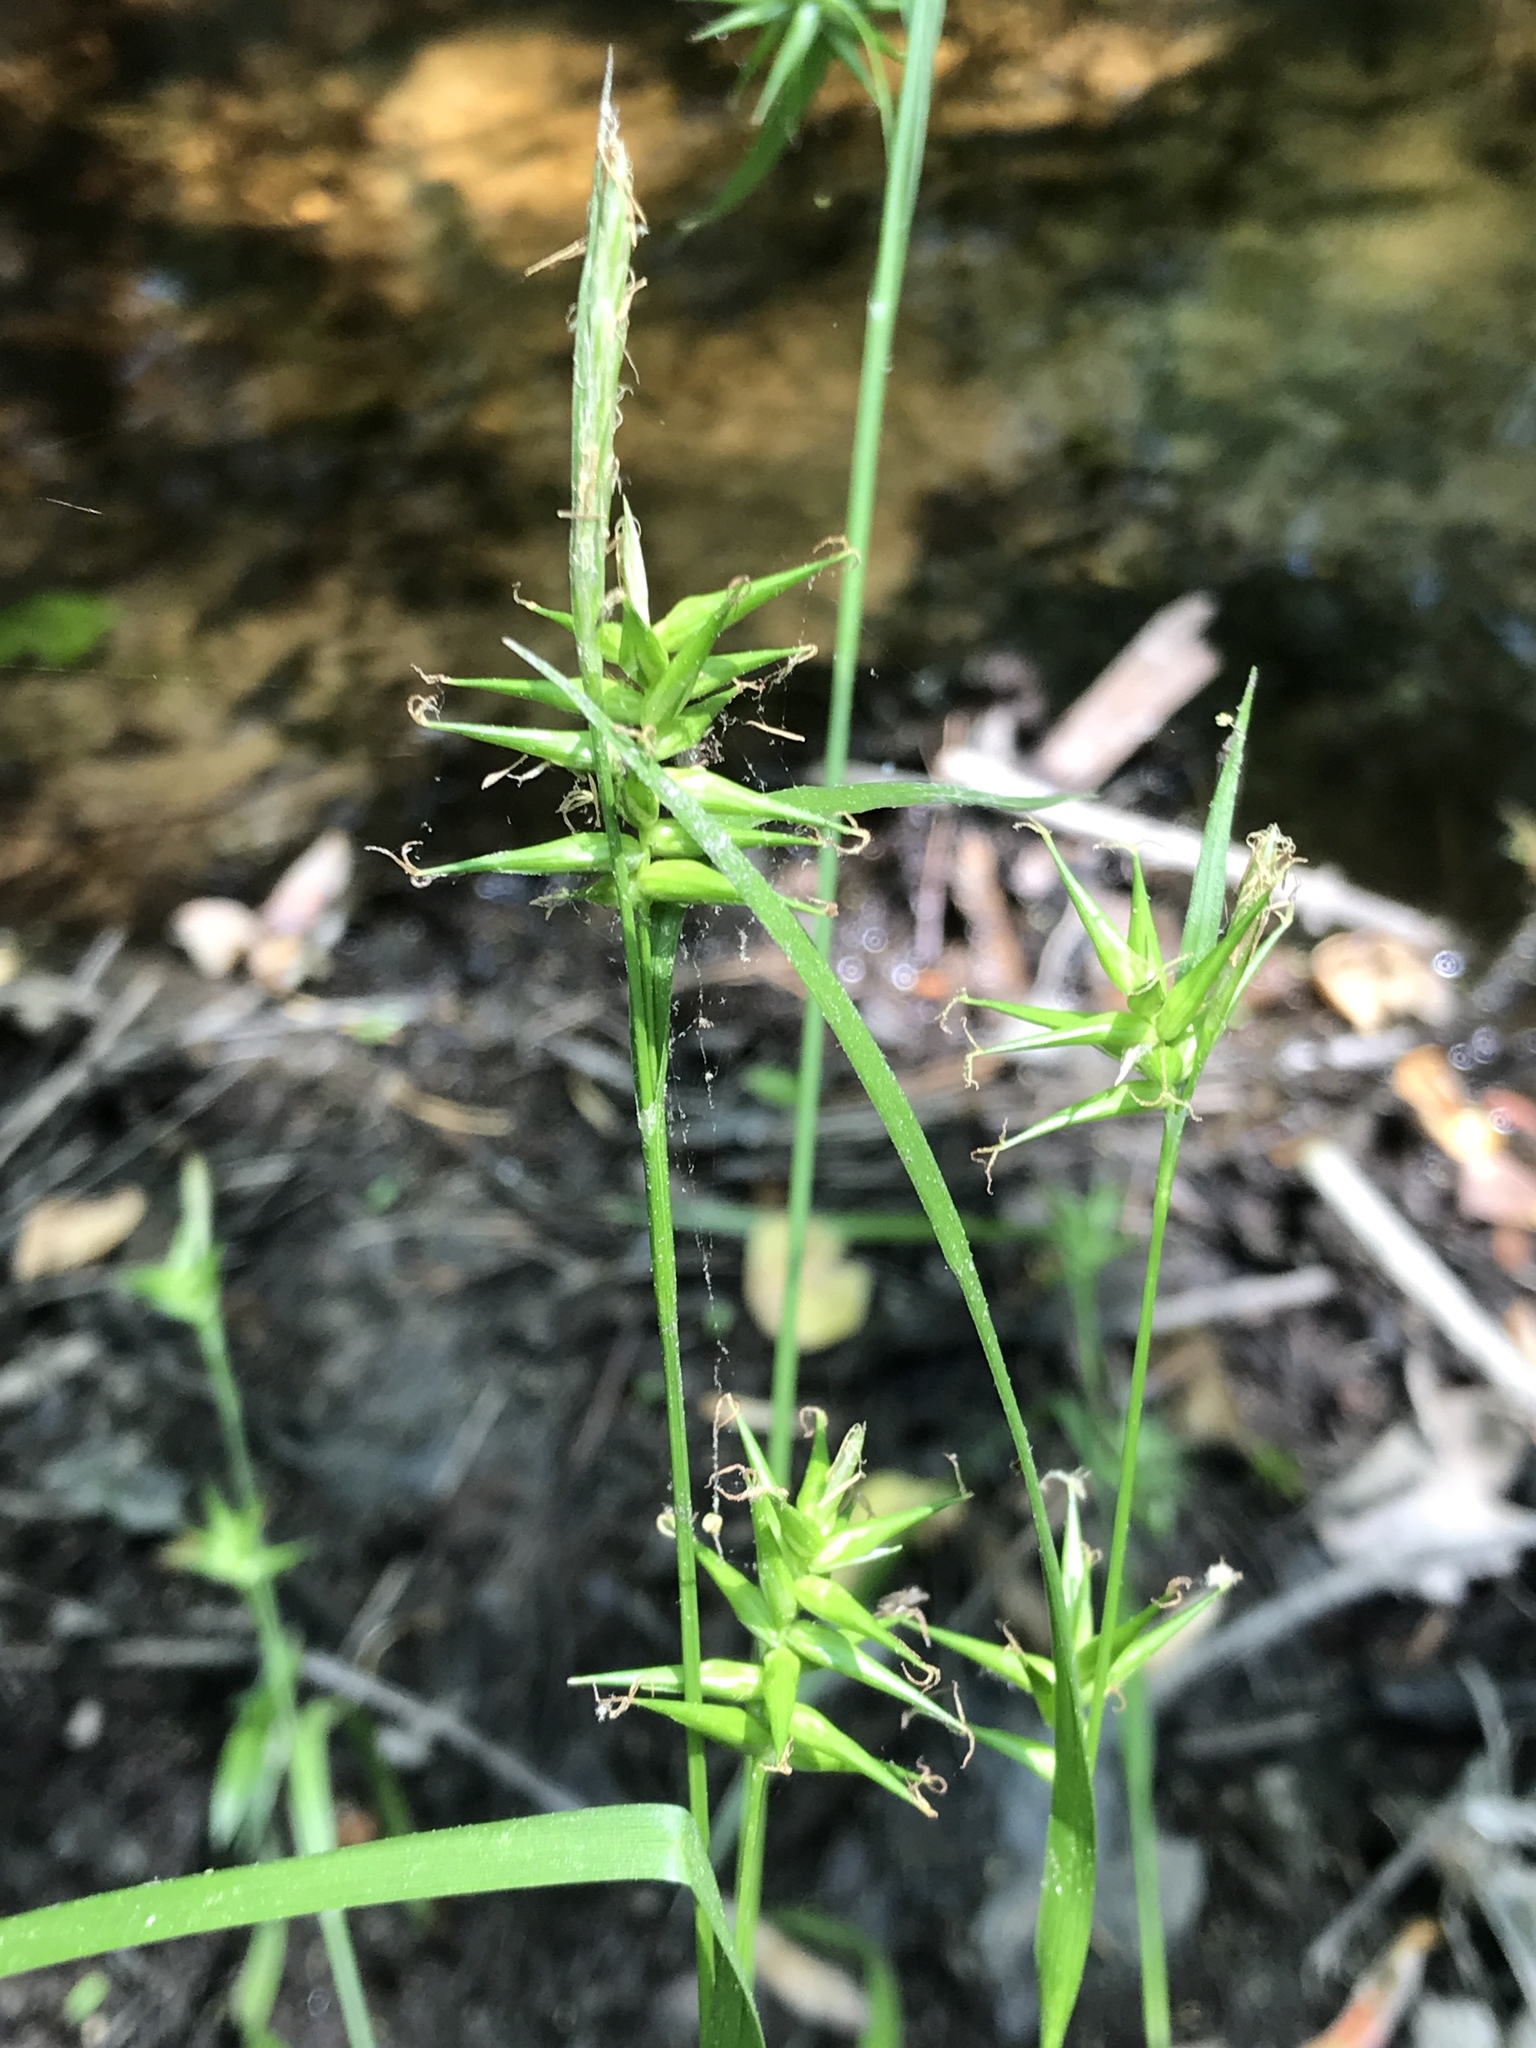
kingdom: Plantae
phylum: Tracheophyta
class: Liliopsida
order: Poales
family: Cyperaceae
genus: Carex
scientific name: Carex lonchocarpa
